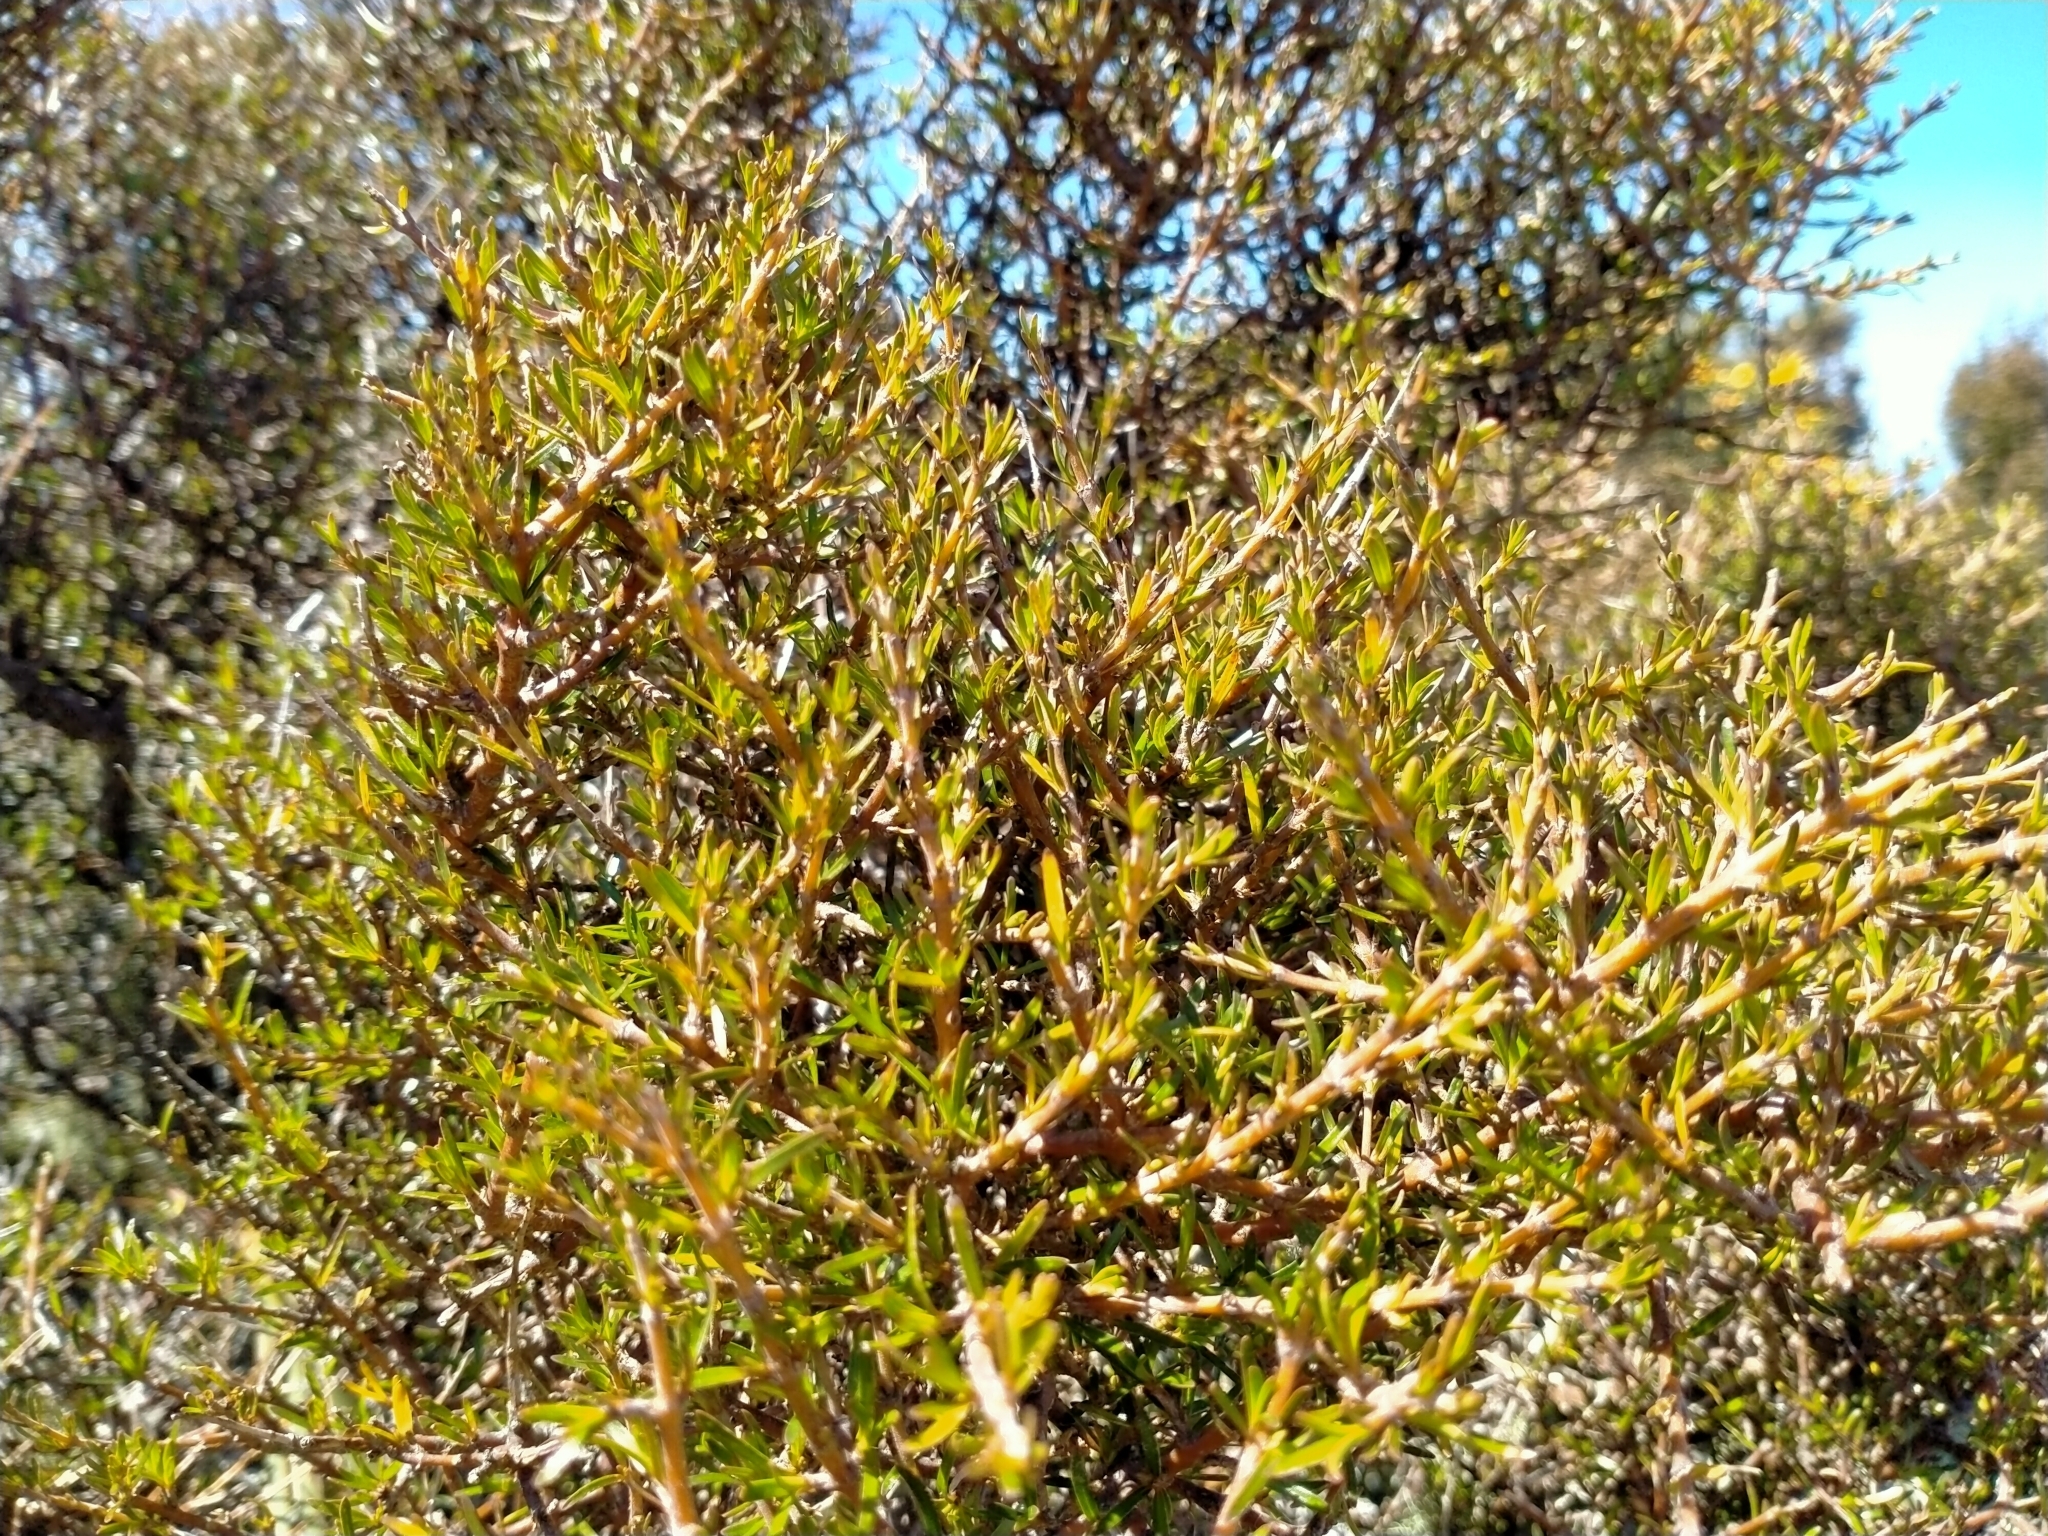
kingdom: Plantae
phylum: Tracheophyta
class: Magnoliopsida
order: Gentianales
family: Rubiaceae
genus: Coprosma
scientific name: Coprosma rugosa
